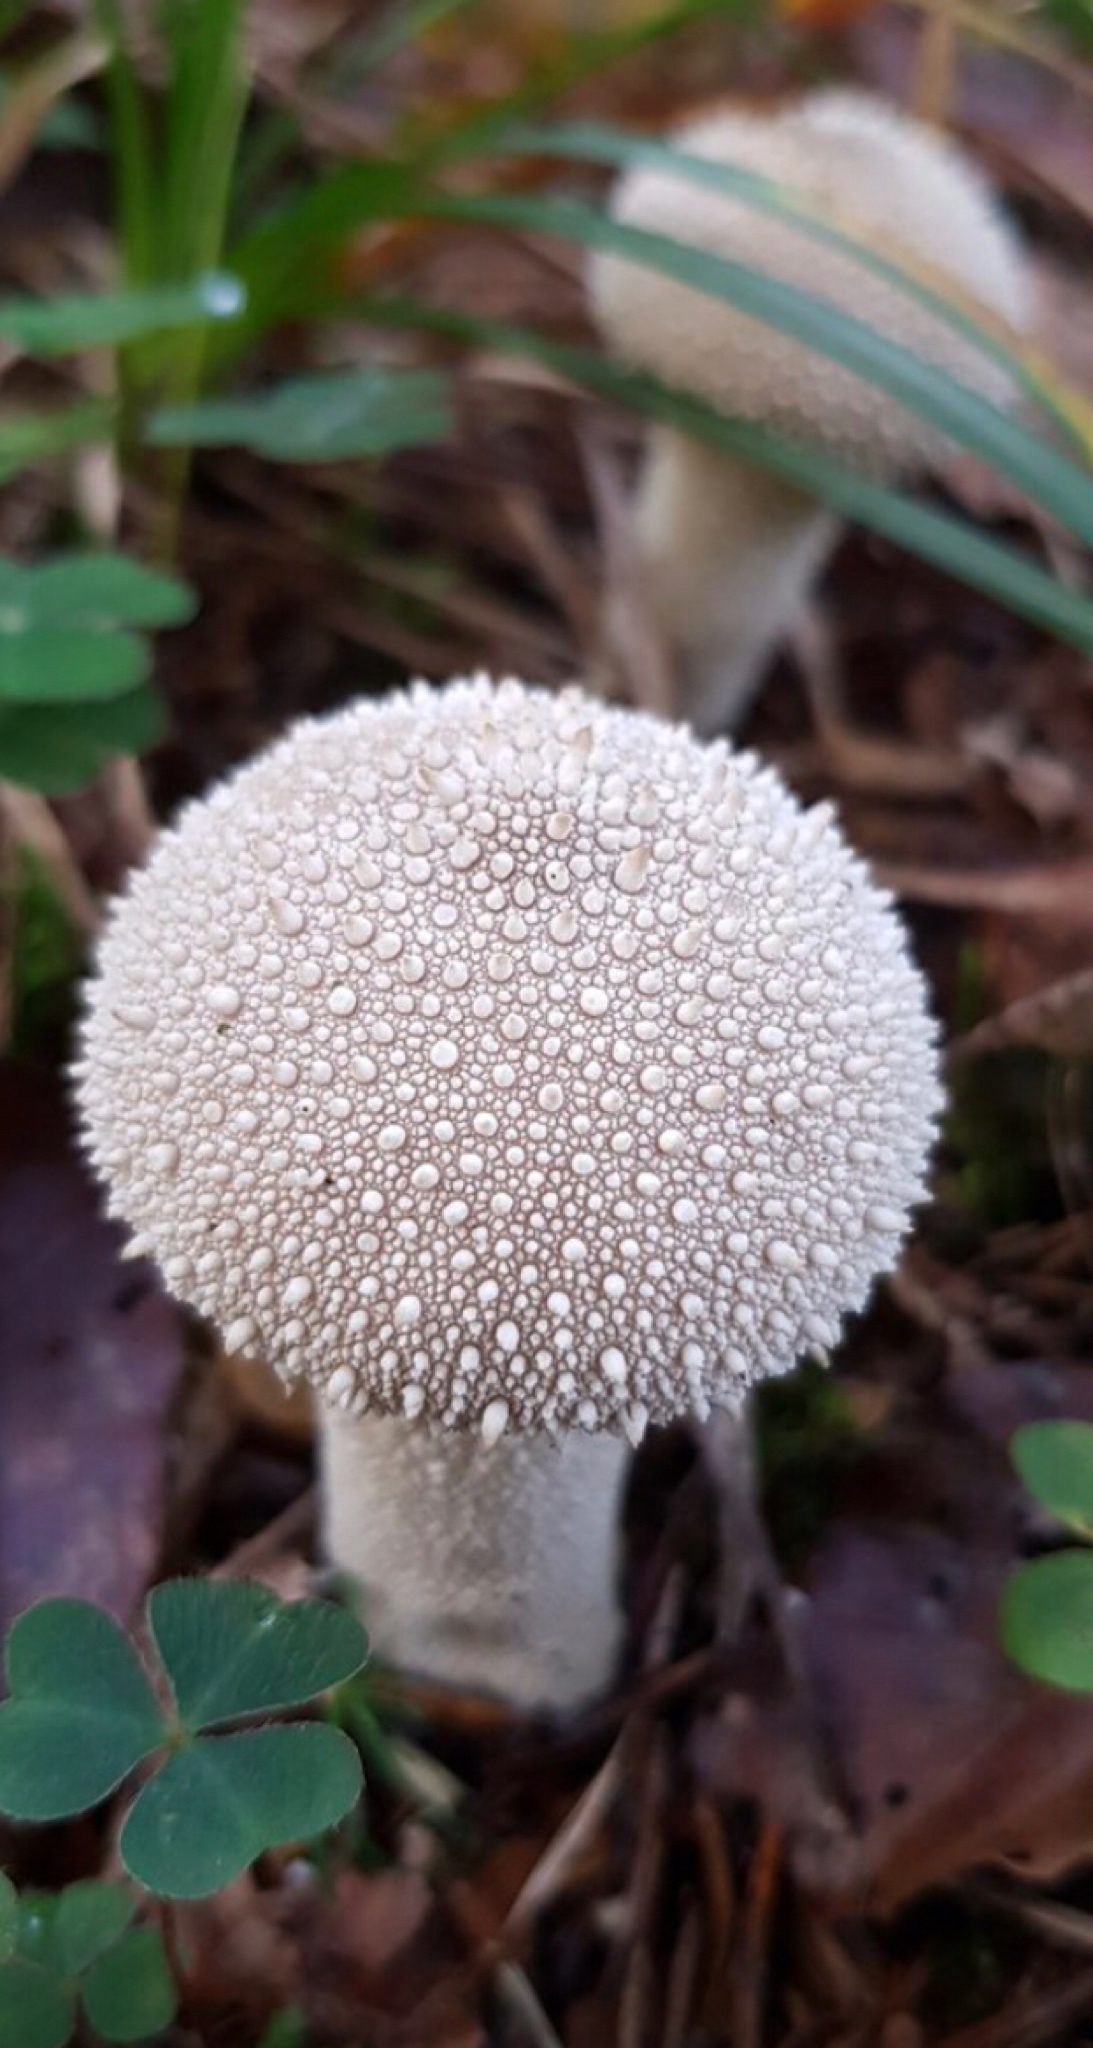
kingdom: Fungi
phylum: Basidiomycota
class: Agaricomycetes
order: Agaricales
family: Lycoperdaceae
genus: Lycoperdon
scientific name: Lycoperdon perlatum
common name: Common puffball
